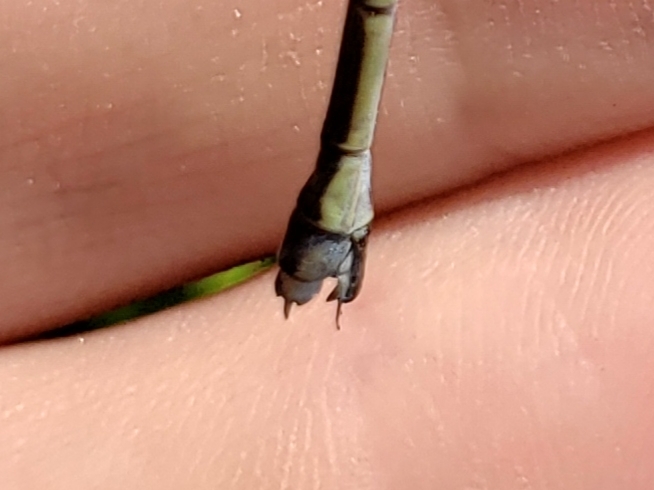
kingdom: Animalia
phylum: Arthropoda
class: Insecta
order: Odonata
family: Lestidae
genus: Lestes
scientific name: Lestes inaequalis
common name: Elegant spreadwing
